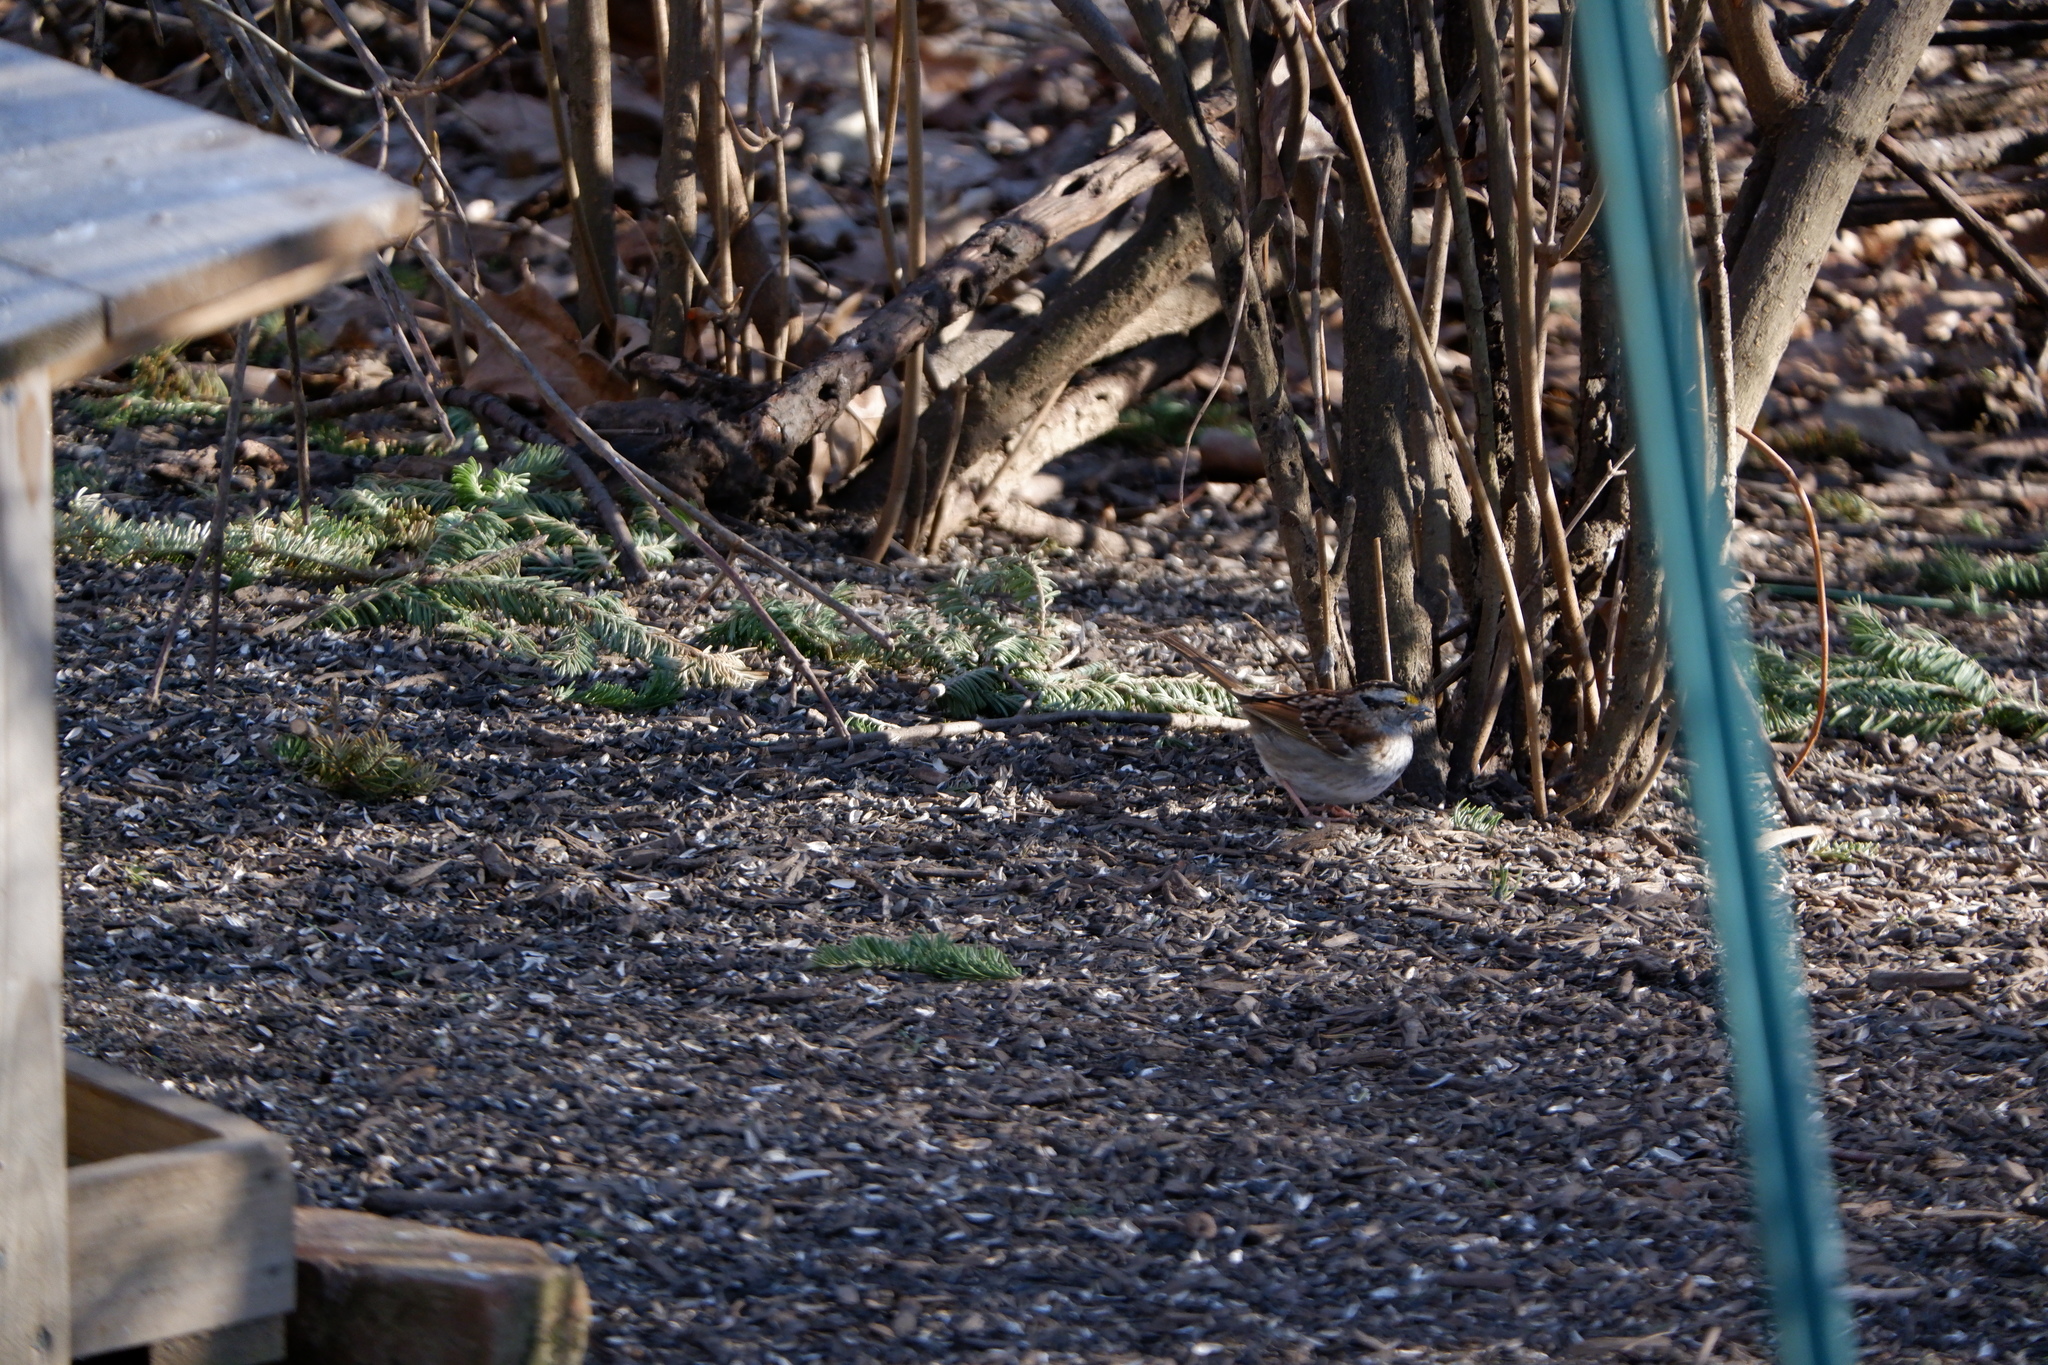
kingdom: Animalia
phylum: Chordata
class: Aves
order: Passeriformes
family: Passerellidae
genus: Zonotrichia
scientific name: Zonotrichia albicollis
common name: White-throated sparrow
